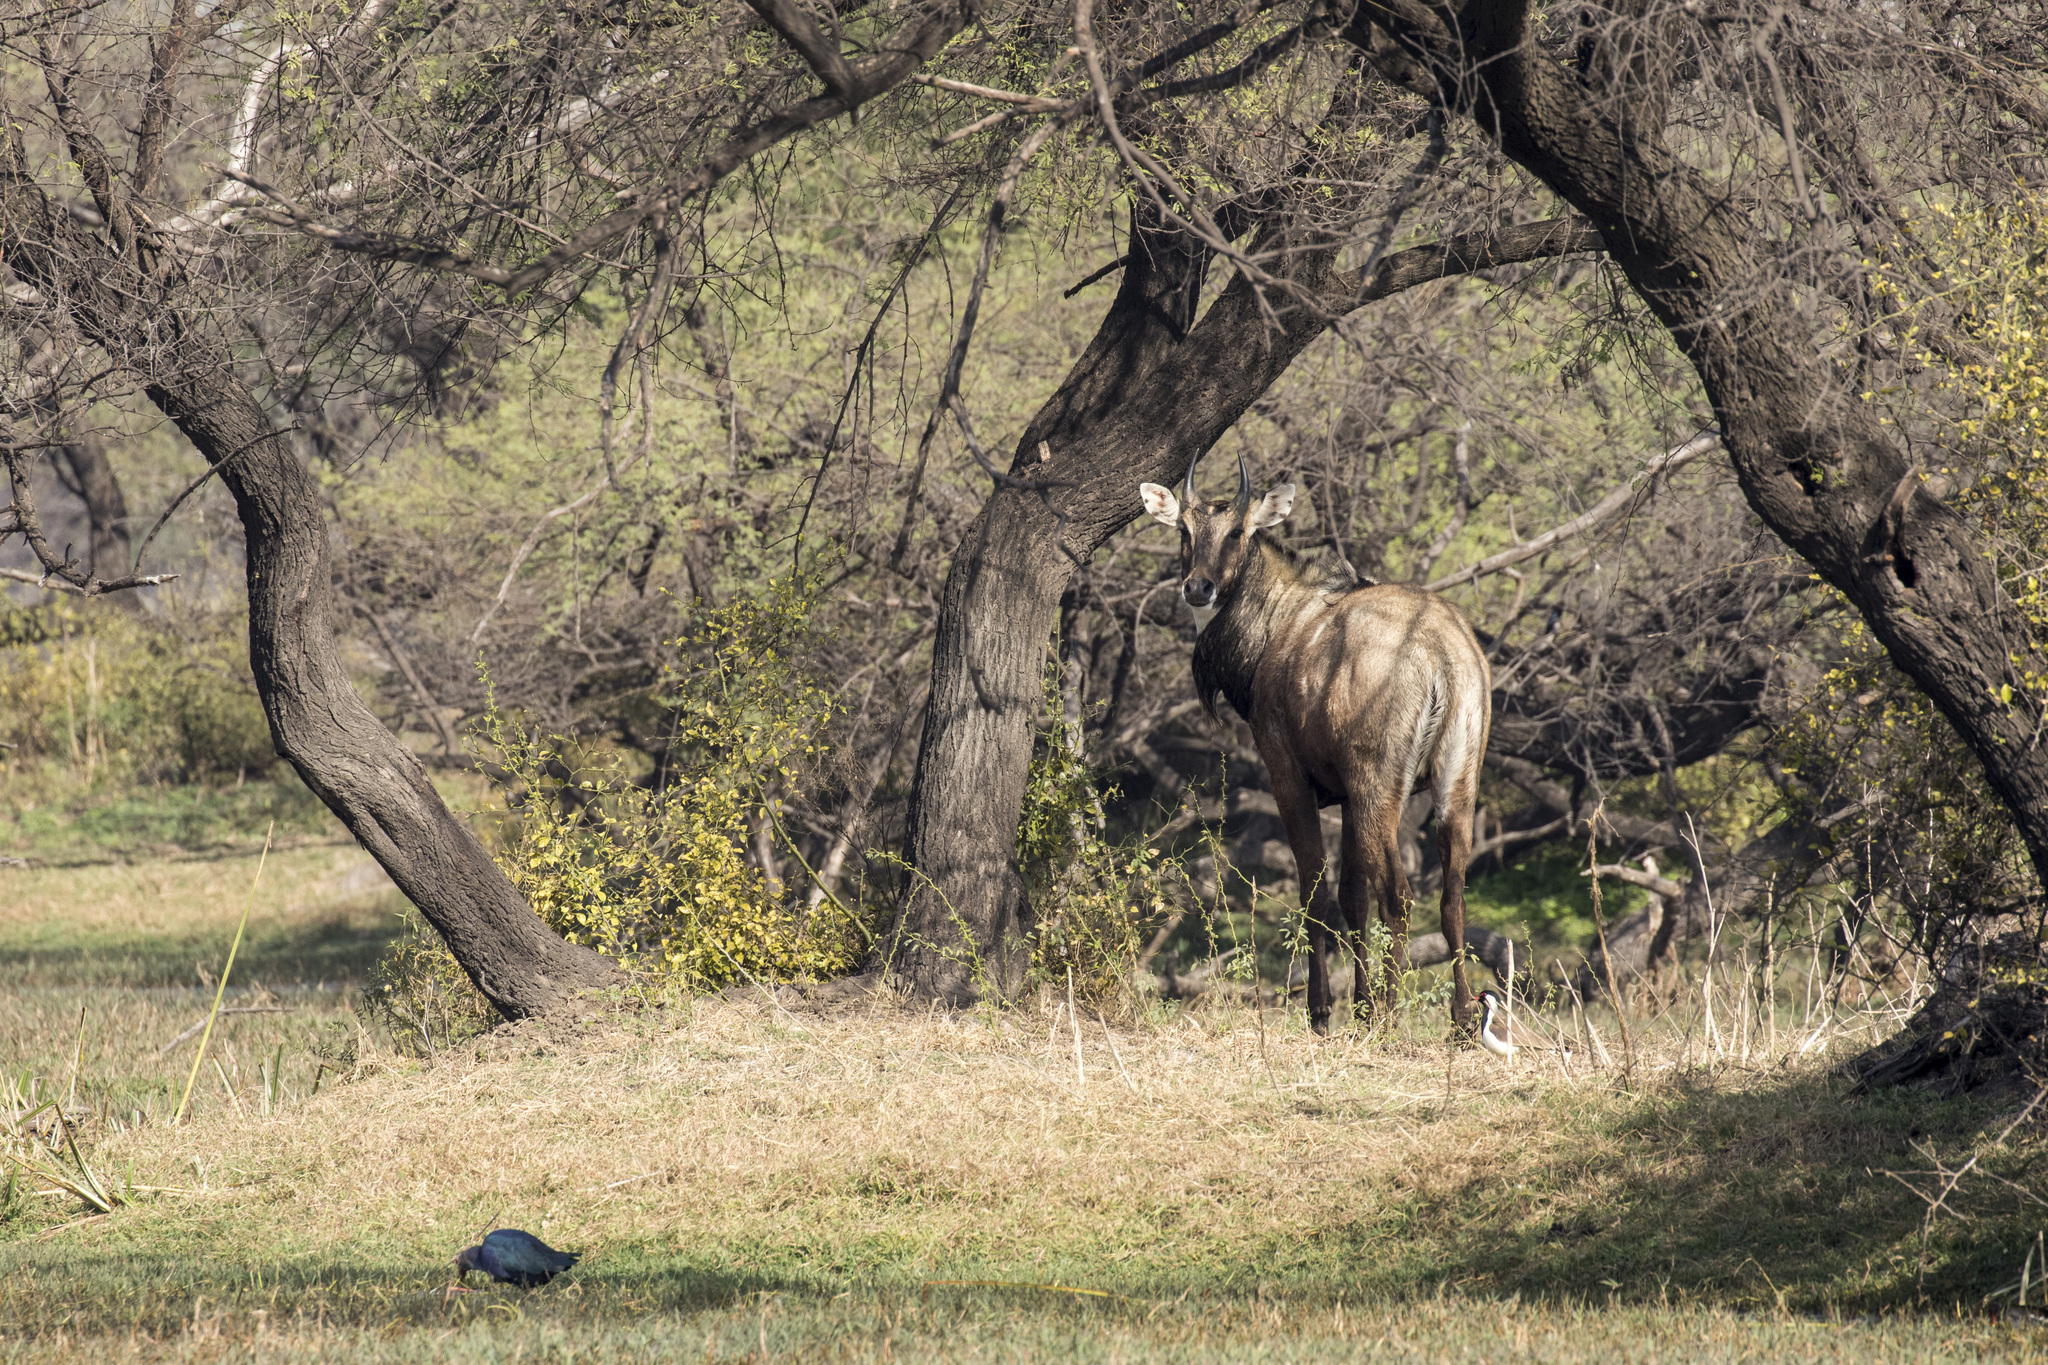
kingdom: Animalia
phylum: Chordata
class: Mammalia
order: Artiodactyla
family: Bovidae
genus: Boselaphus
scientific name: Boselaphus tragocamelus
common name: Nilgai
